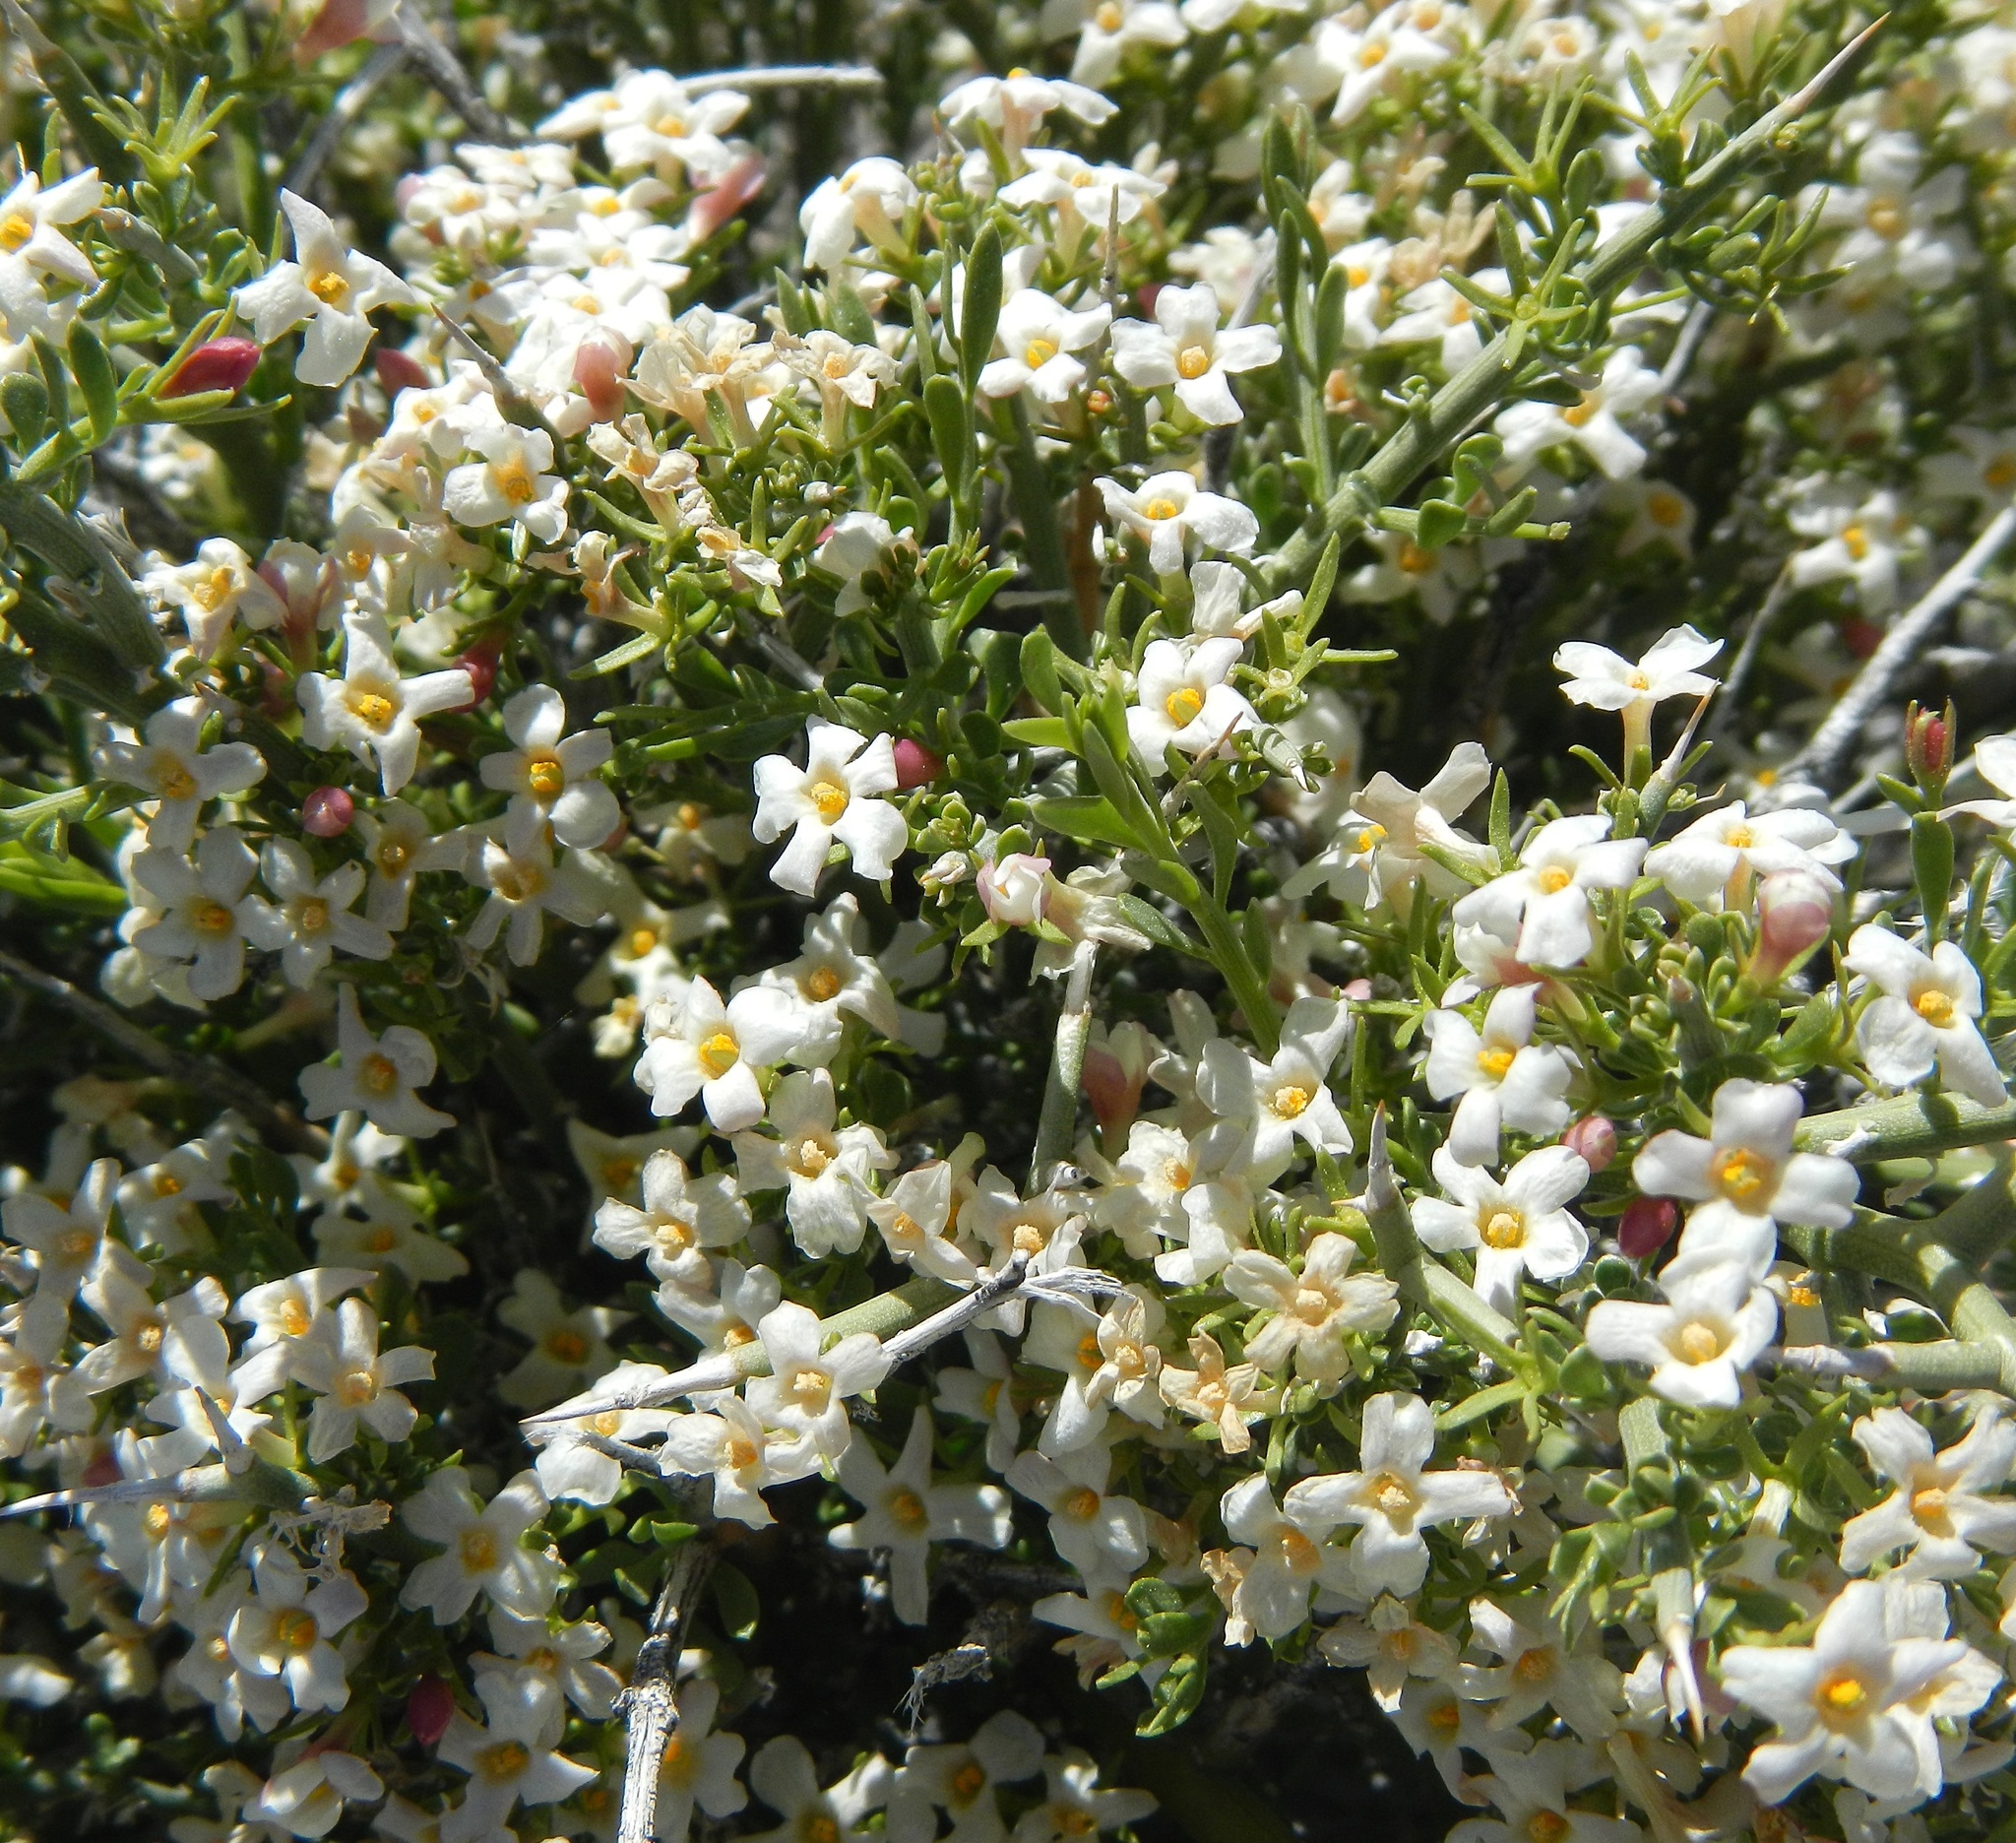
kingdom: Plantae
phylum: Tracheophyta
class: Magnoliopsida
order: Lamiales
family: Oleaceae
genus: Menodora
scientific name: Menodora spinescens
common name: Spiny menodora
